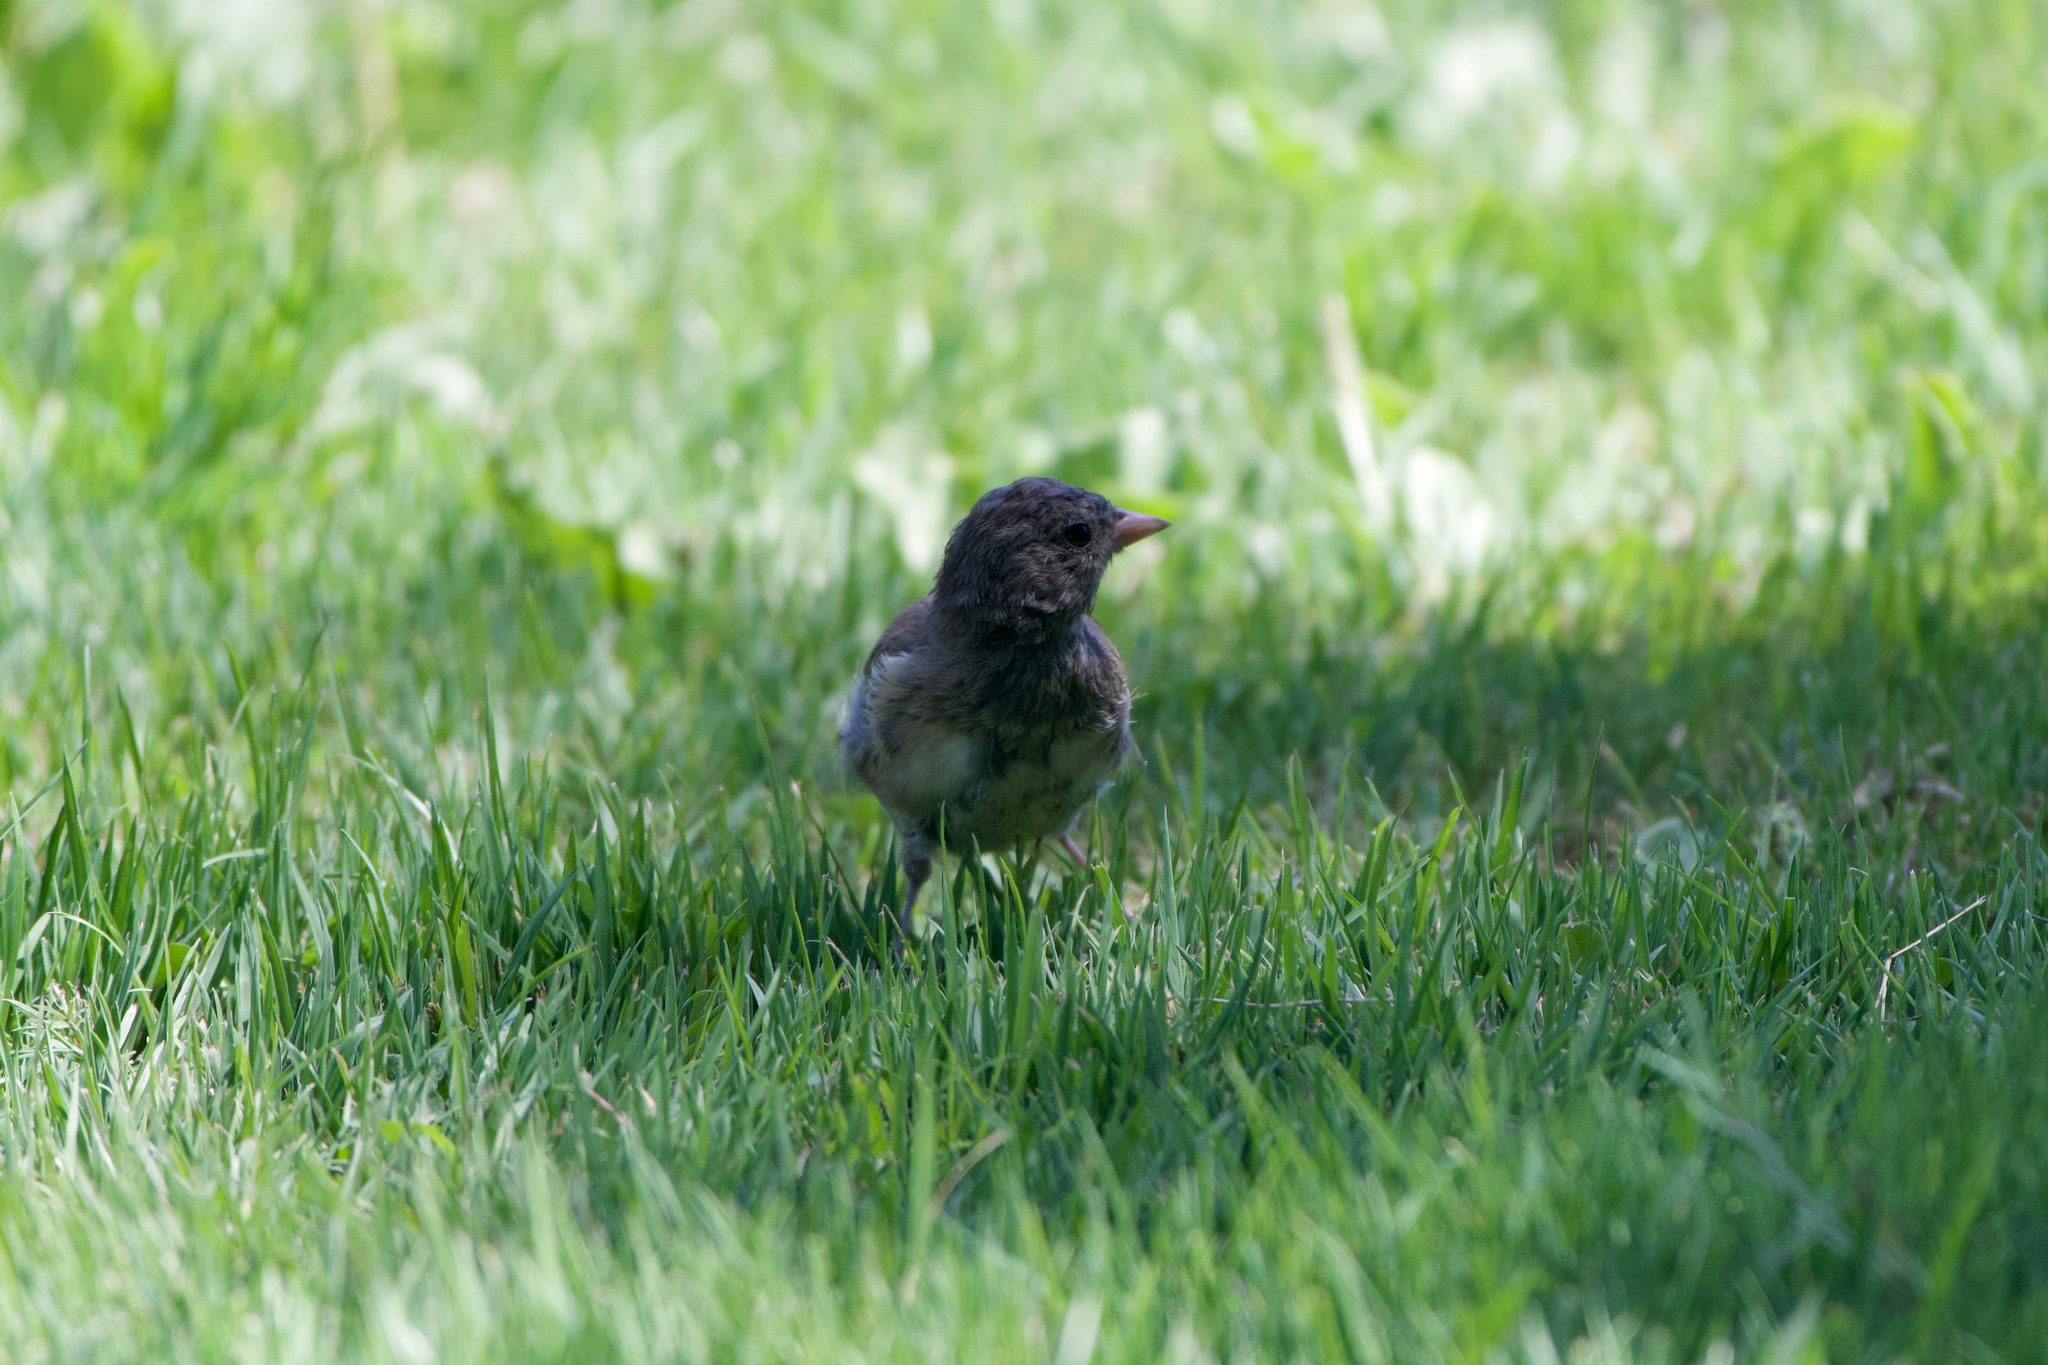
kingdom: Animalia
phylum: Chordata
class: Aves
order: Passeriformes
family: Passerellidae
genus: Junco
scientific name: Junco hyemalis
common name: Dark-eyed junco
